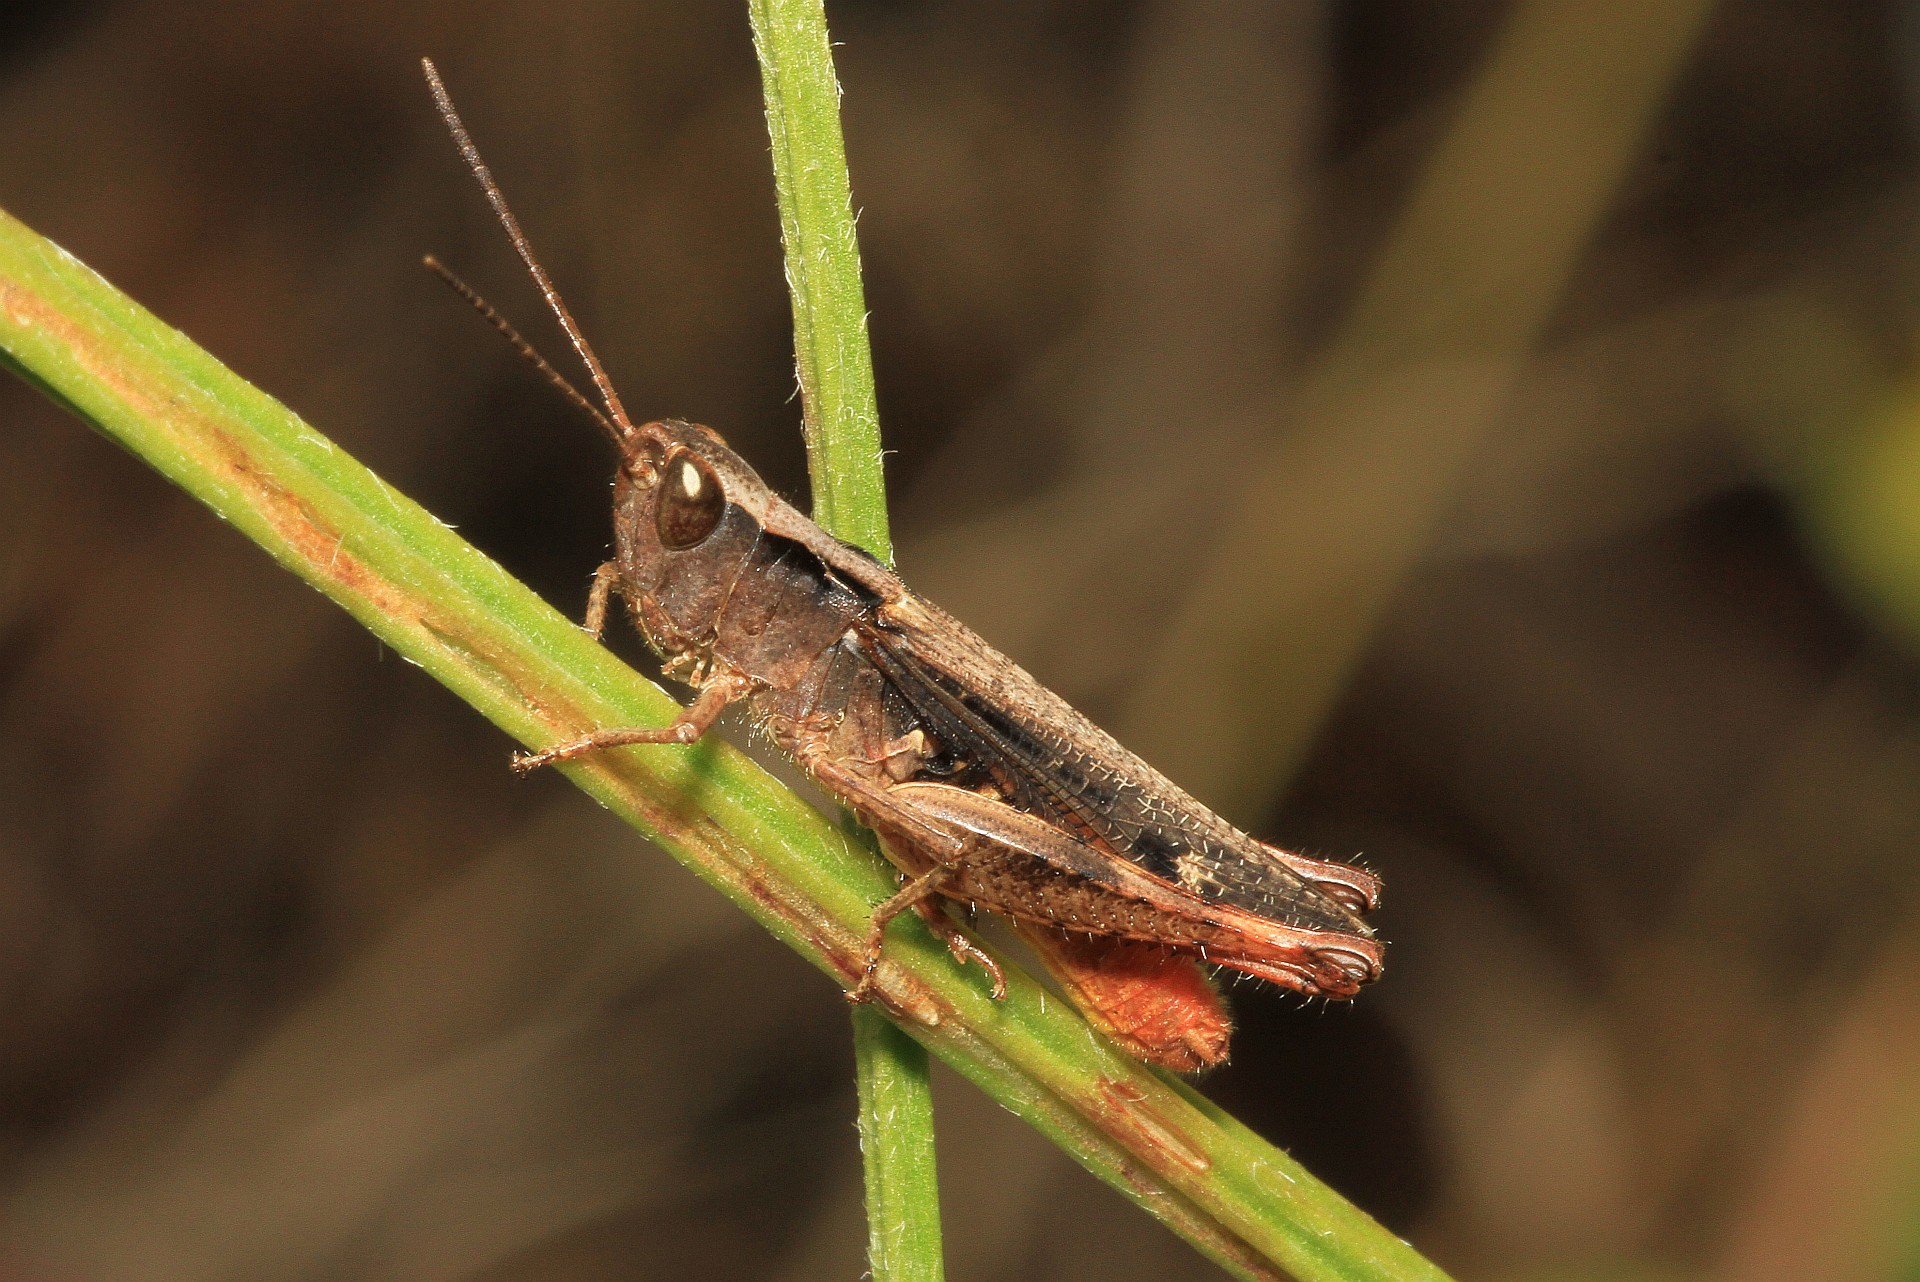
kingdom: Animalia
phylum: Arthropoda
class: Insecta
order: Orthoptera
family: Acrididae
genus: Chorthippus
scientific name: Chorthippus vagans
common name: Heath grasshopper
